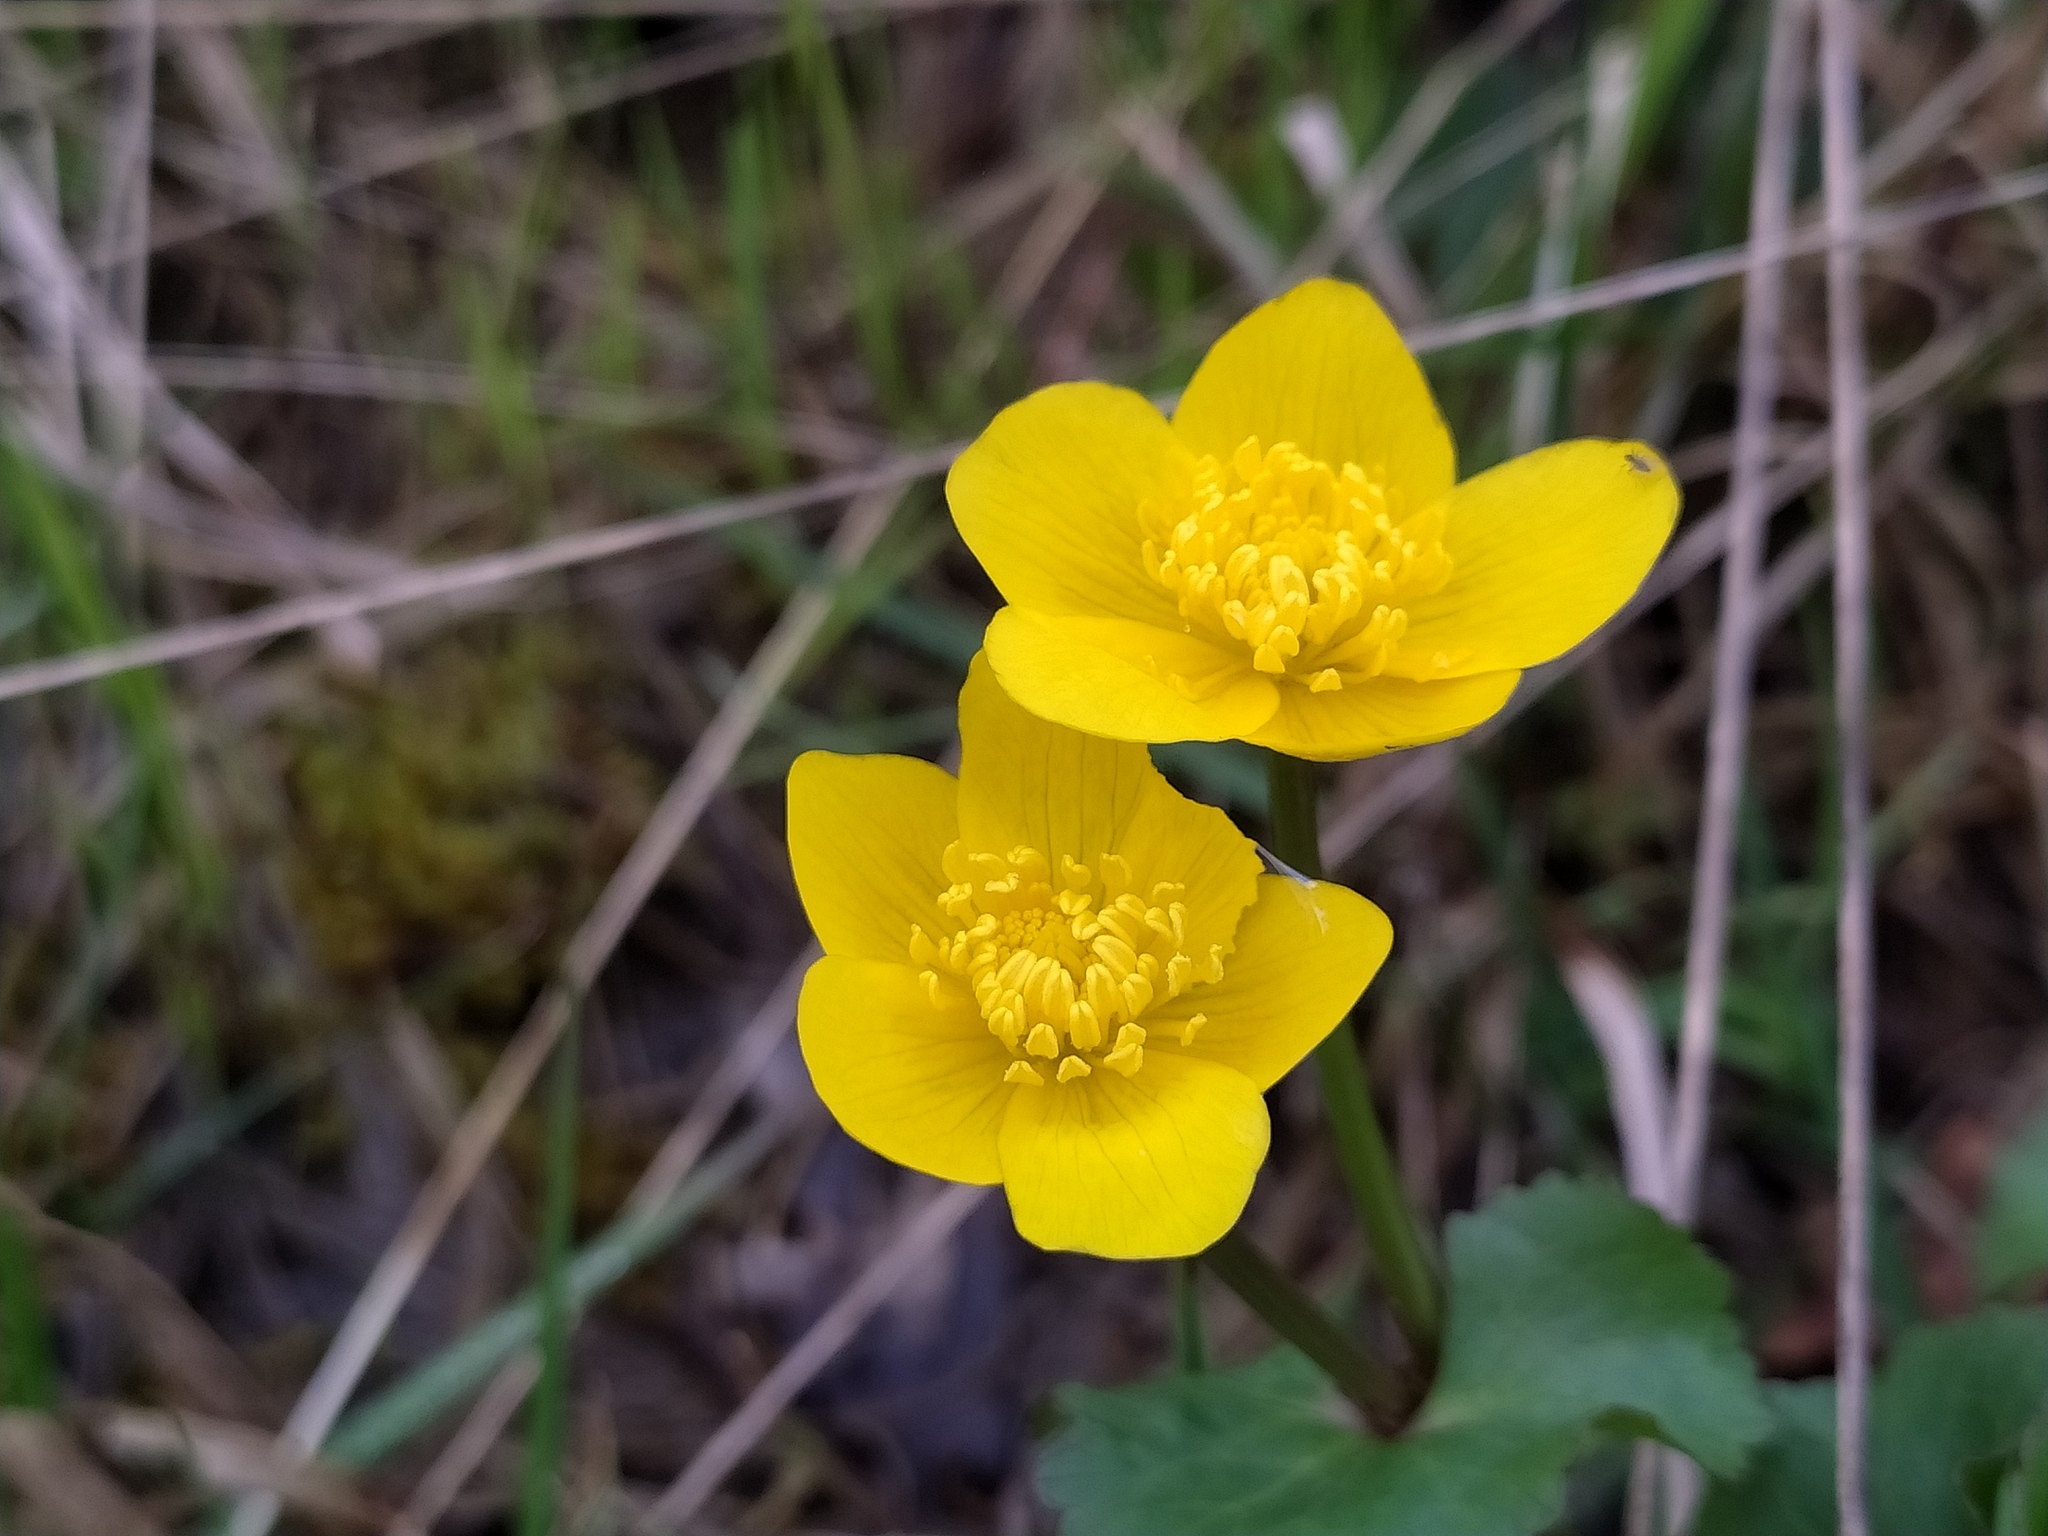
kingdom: Plantae
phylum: Tracheophyta
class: Magnoliopsida
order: Ranunculales
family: Ranunculaceae
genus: Caltha
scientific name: Caltha palustris
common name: Marsh marigold
